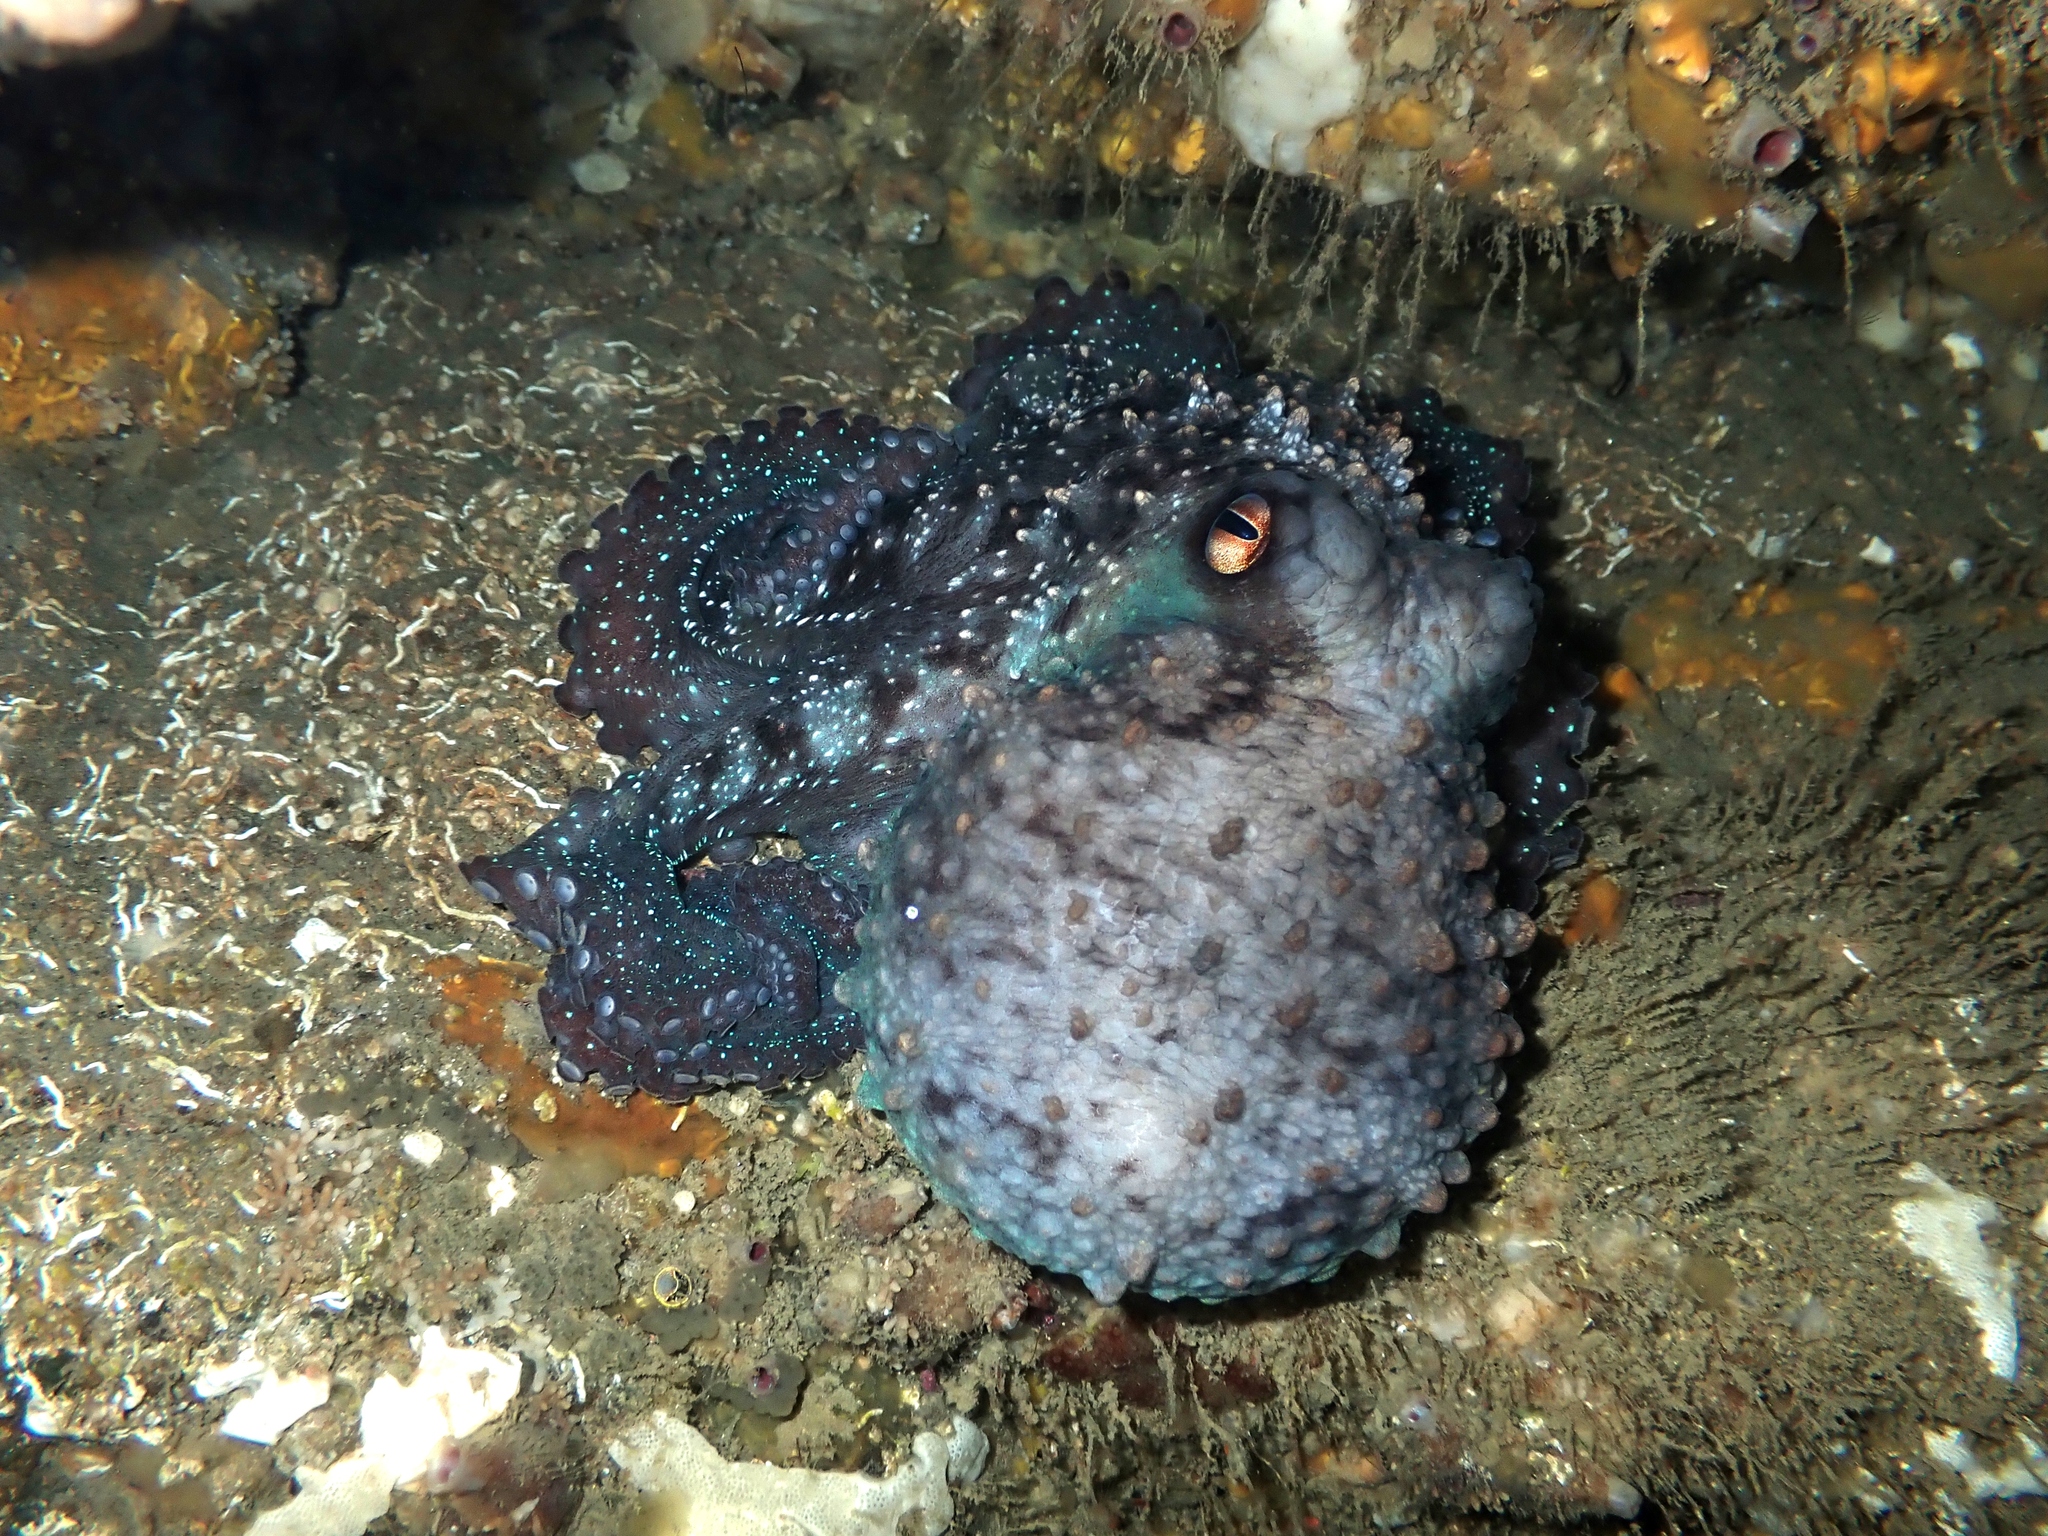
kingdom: Animalia
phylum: Mollusca
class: Cephalopoda
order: Octopoda
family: Octopodidae
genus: Macroctopus
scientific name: Macroctopus maorum
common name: Maori octopus
